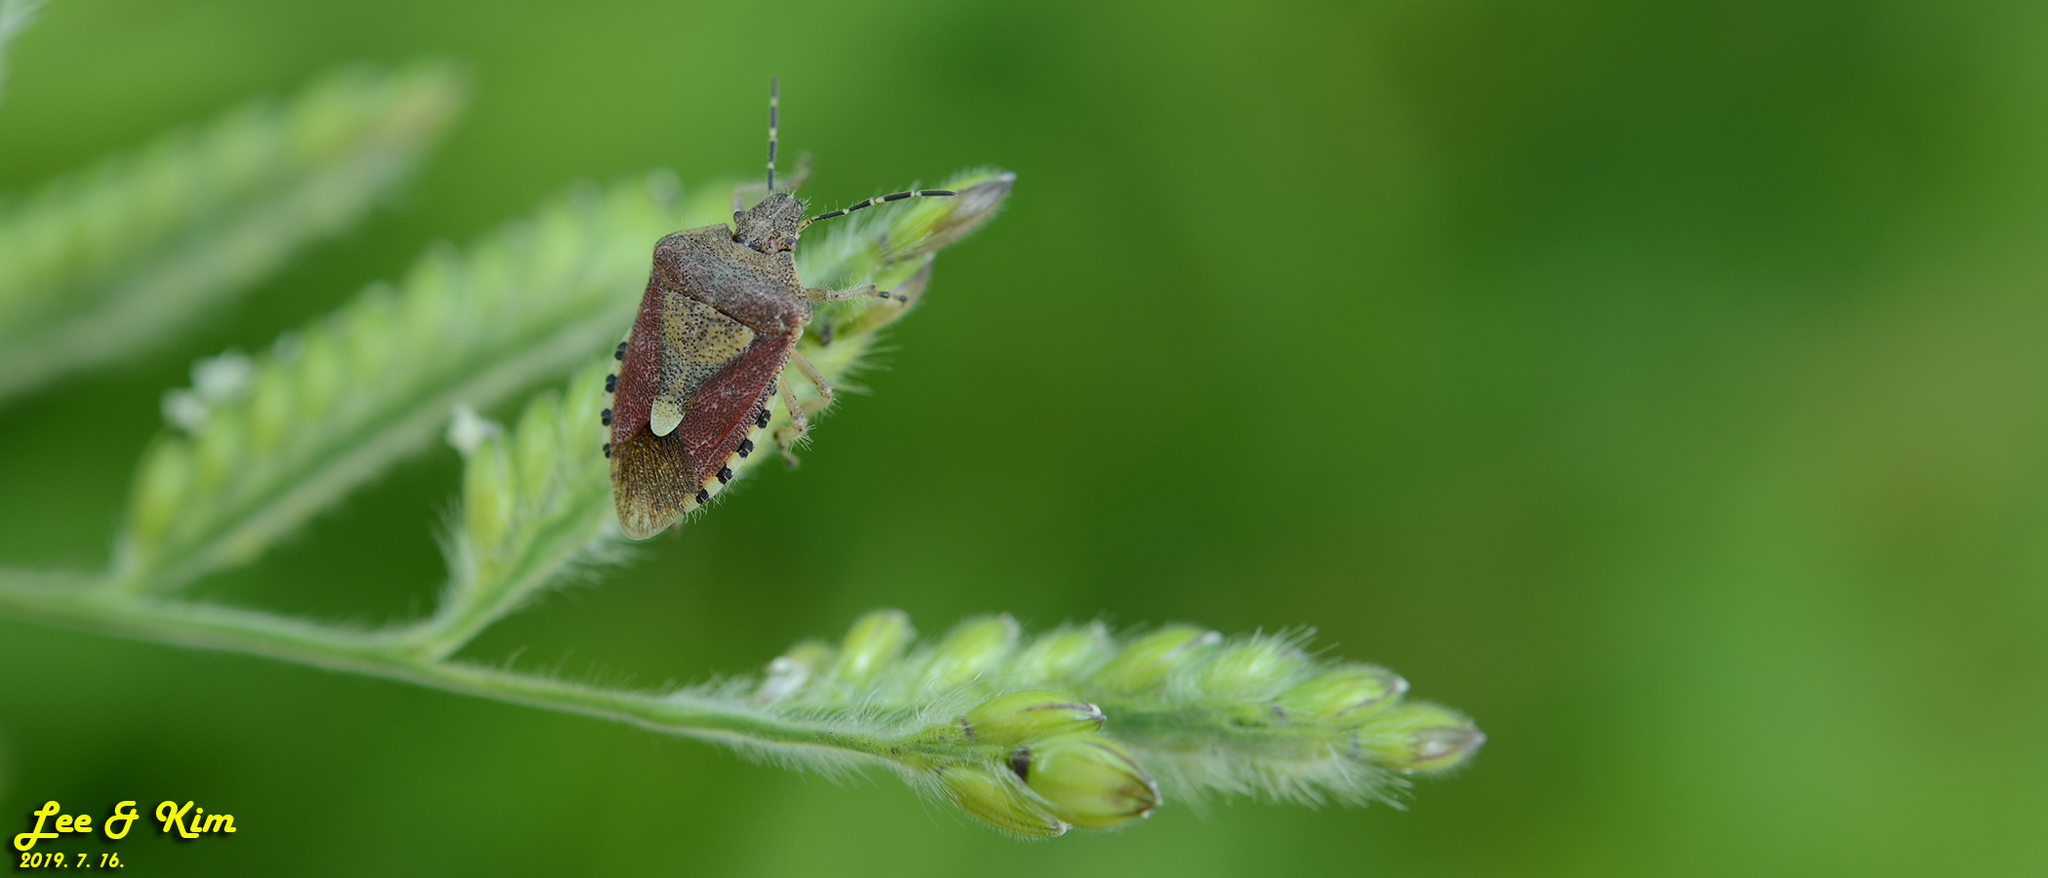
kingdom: Animalia
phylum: Arthropoda
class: Insecta
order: Hemiptera
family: Pentatomidae
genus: Dolycoris
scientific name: Dolycoris baccarum
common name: Sloe bug
